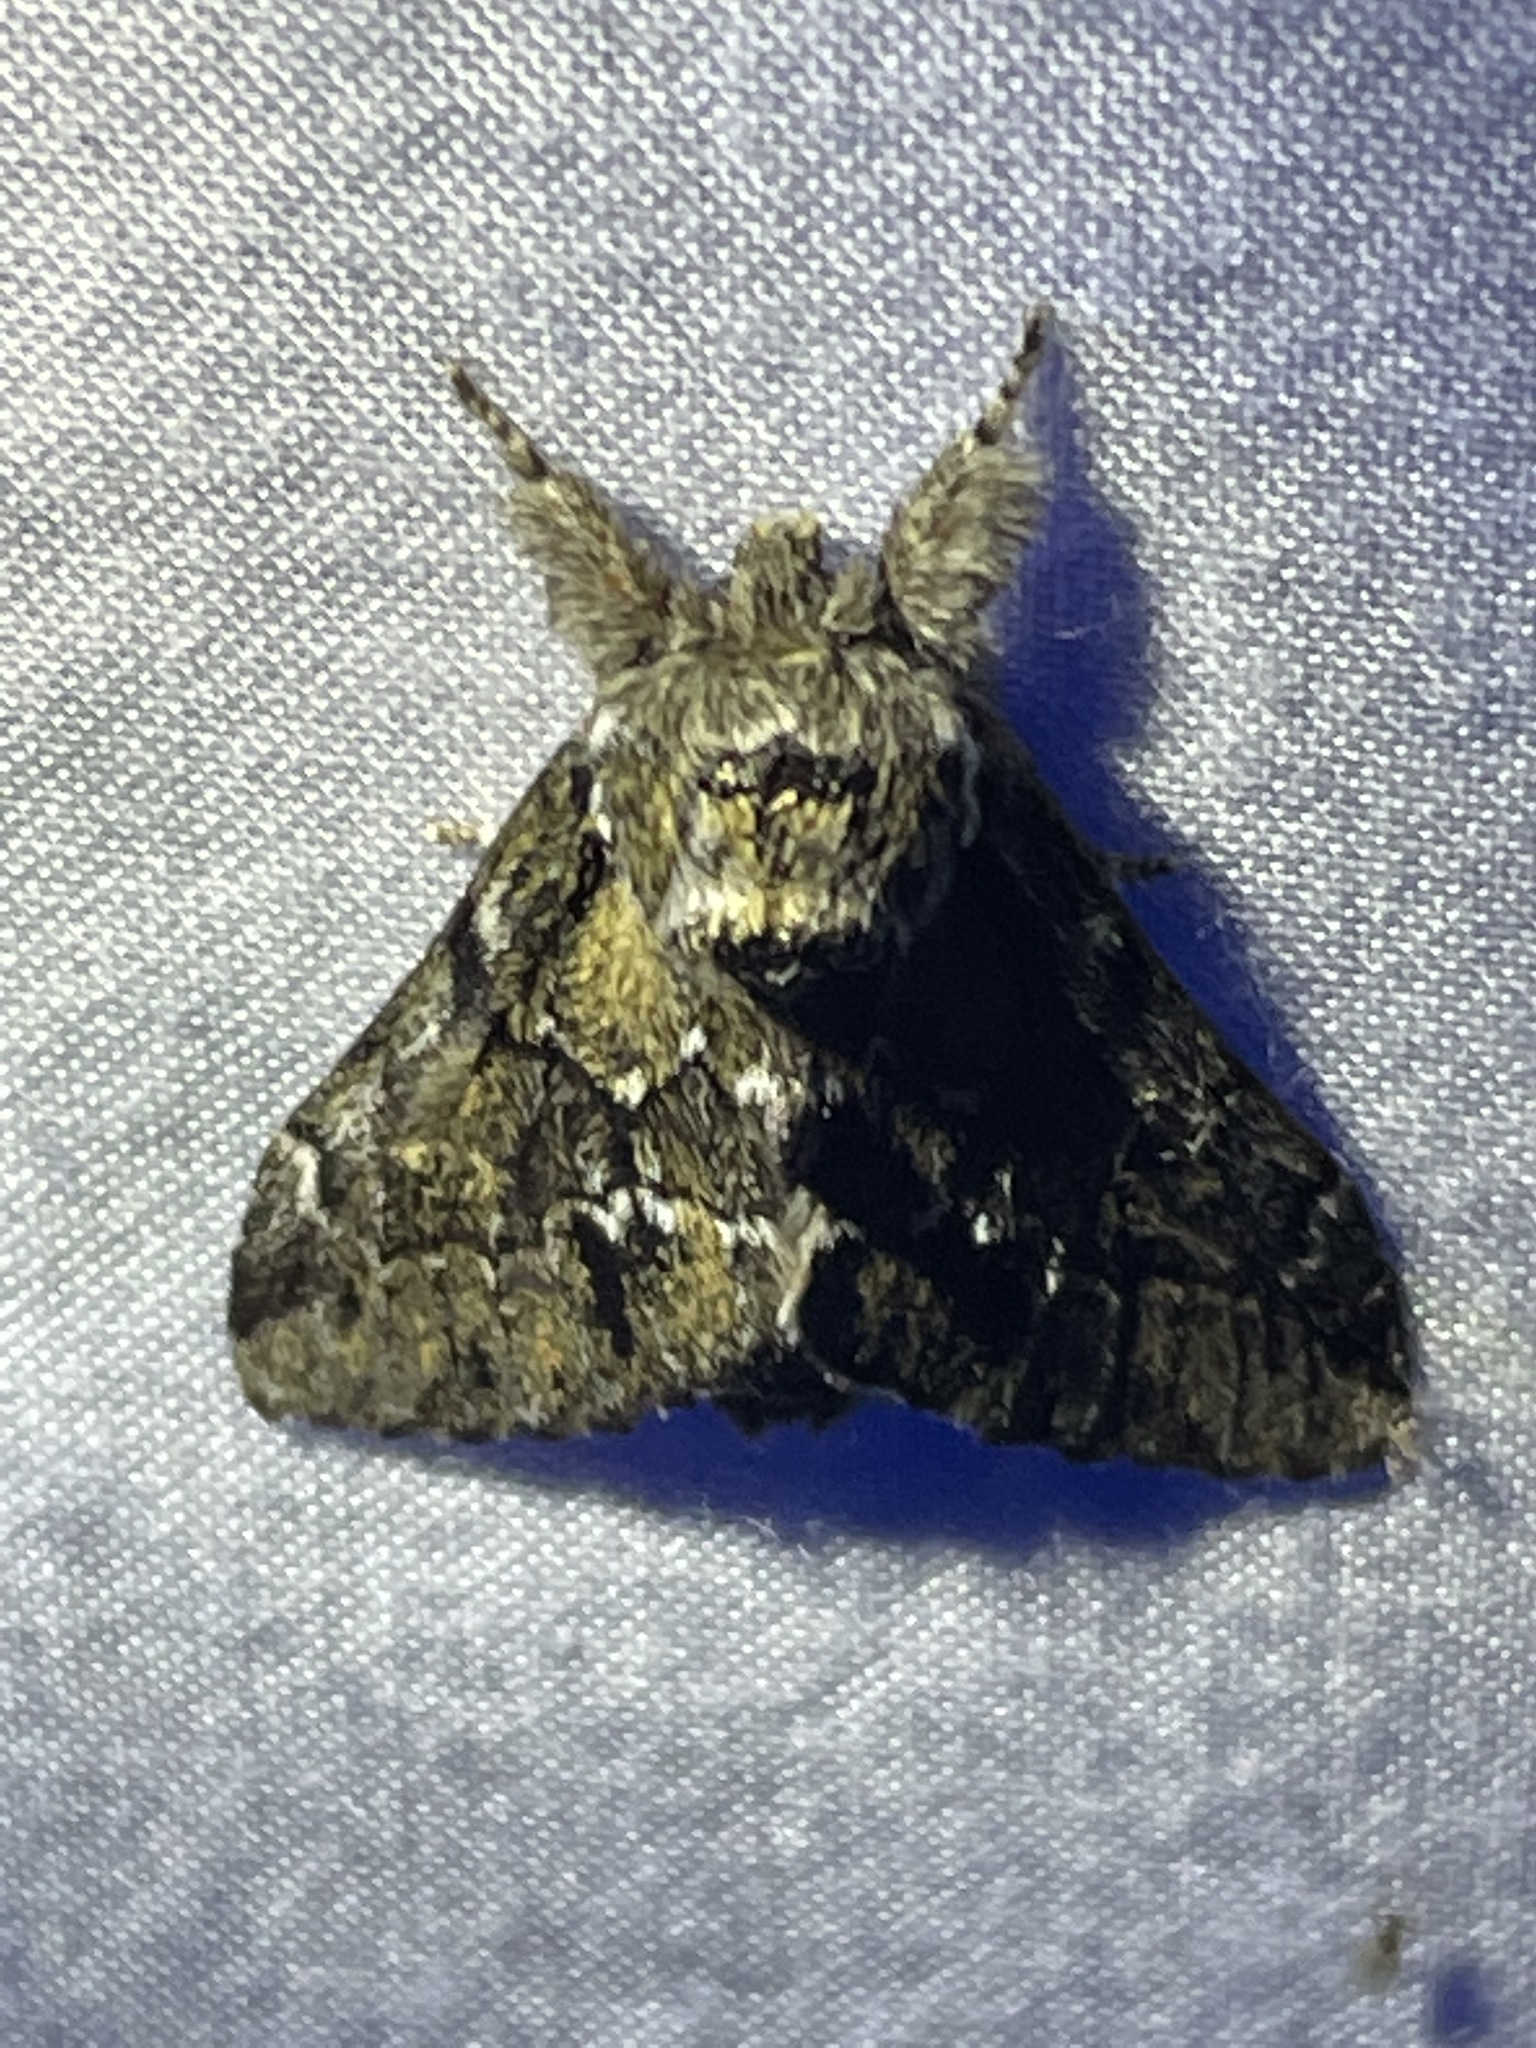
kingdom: Animalia
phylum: Arthropoda
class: Insecta
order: Lepidoptera
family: Notodontidae
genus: Paraeschra
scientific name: Paraeschra georgica
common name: Georgian prominent
